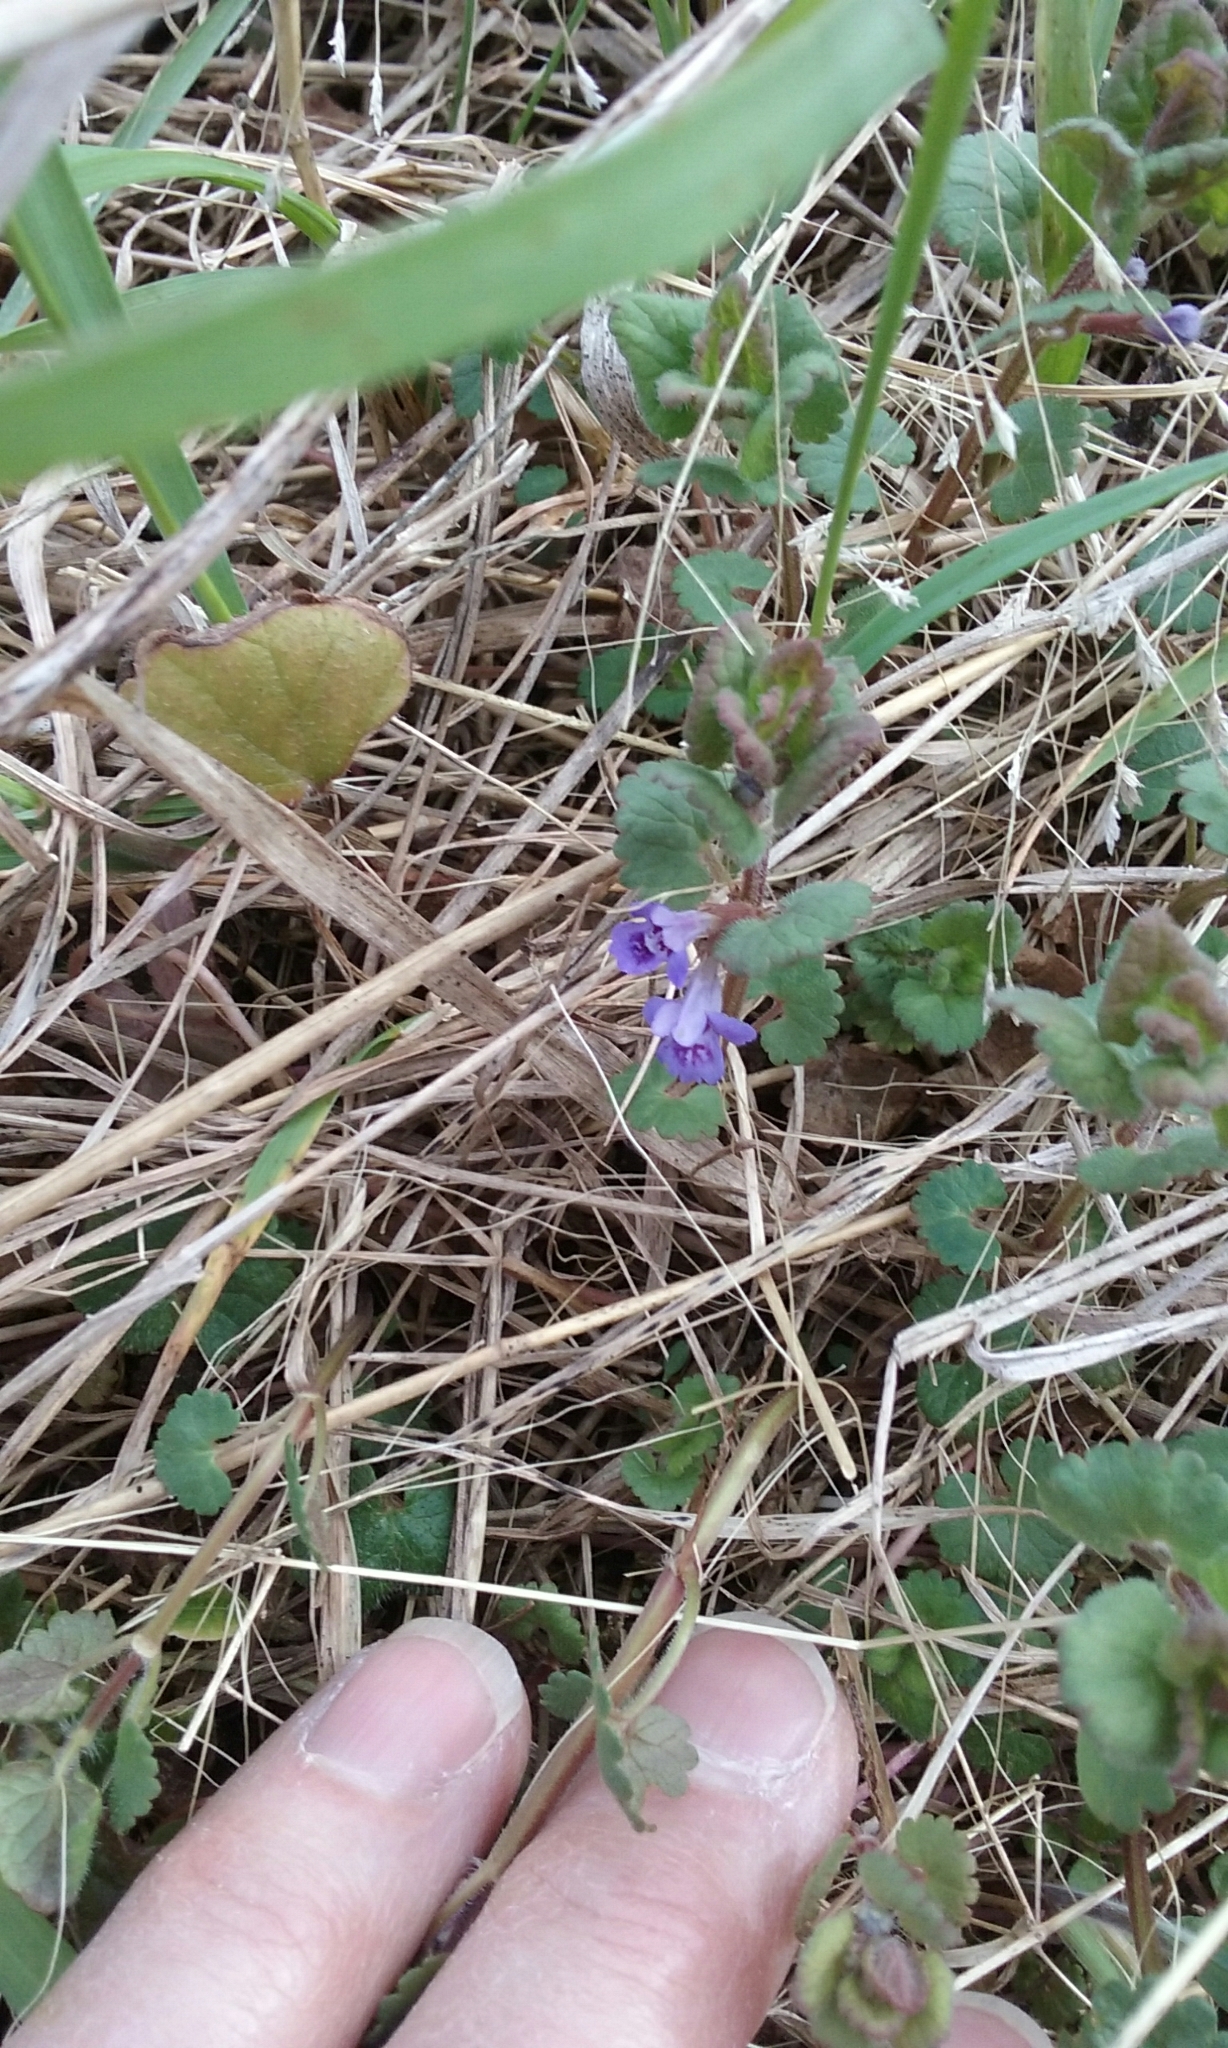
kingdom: Plantae
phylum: Tracheophyta
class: Magnoliopsida
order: Lamiales
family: Lamiaceae
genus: Glechoma
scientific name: Glechoma hederacea
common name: Ground ivy
